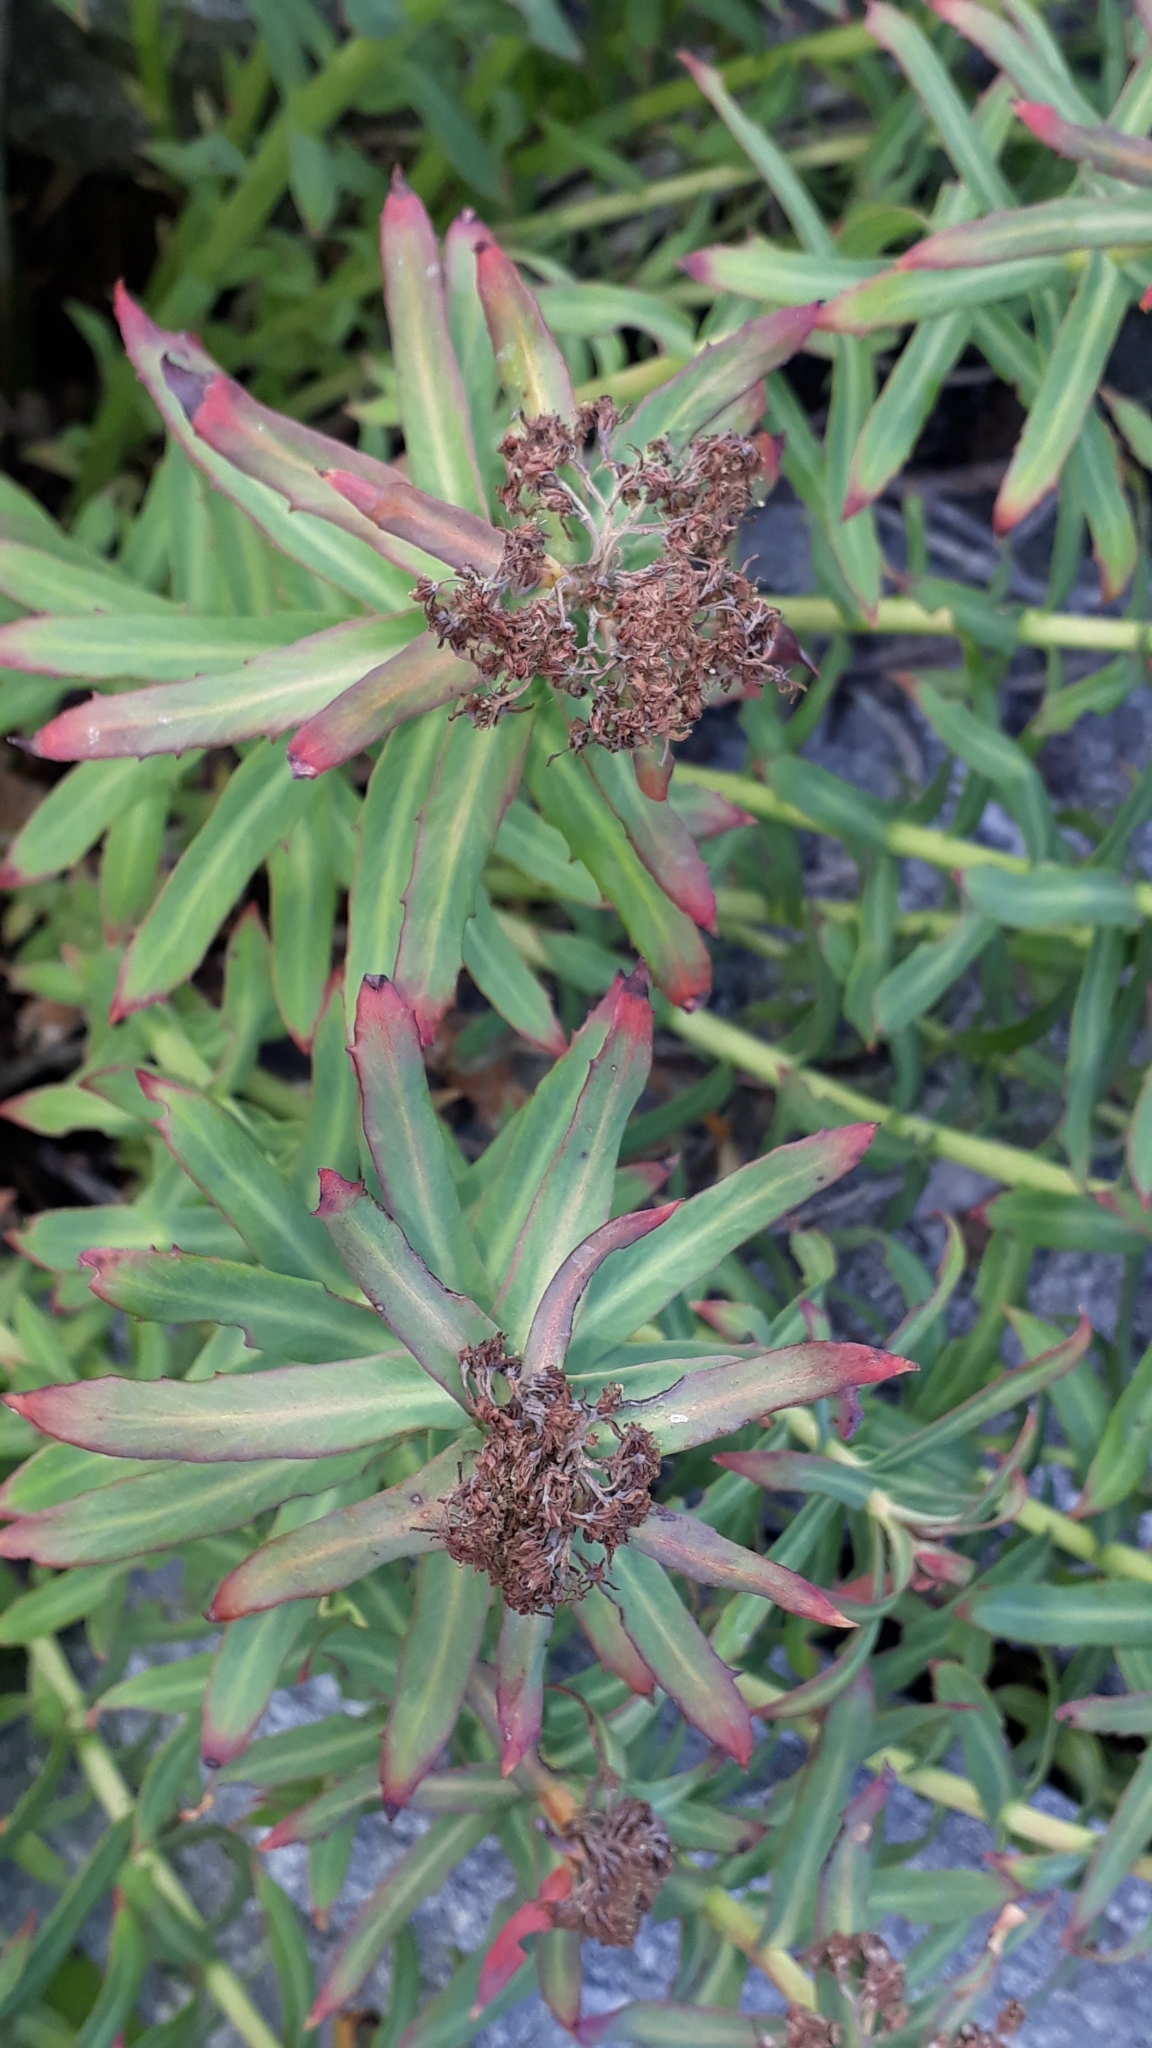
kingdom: Plantae
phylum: Tracheophyta
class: Magnoliopsida
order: Saxifragales
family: Crassulaceae
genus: Rhodiola
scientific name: Rhodiola rosea
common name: Roseroot
